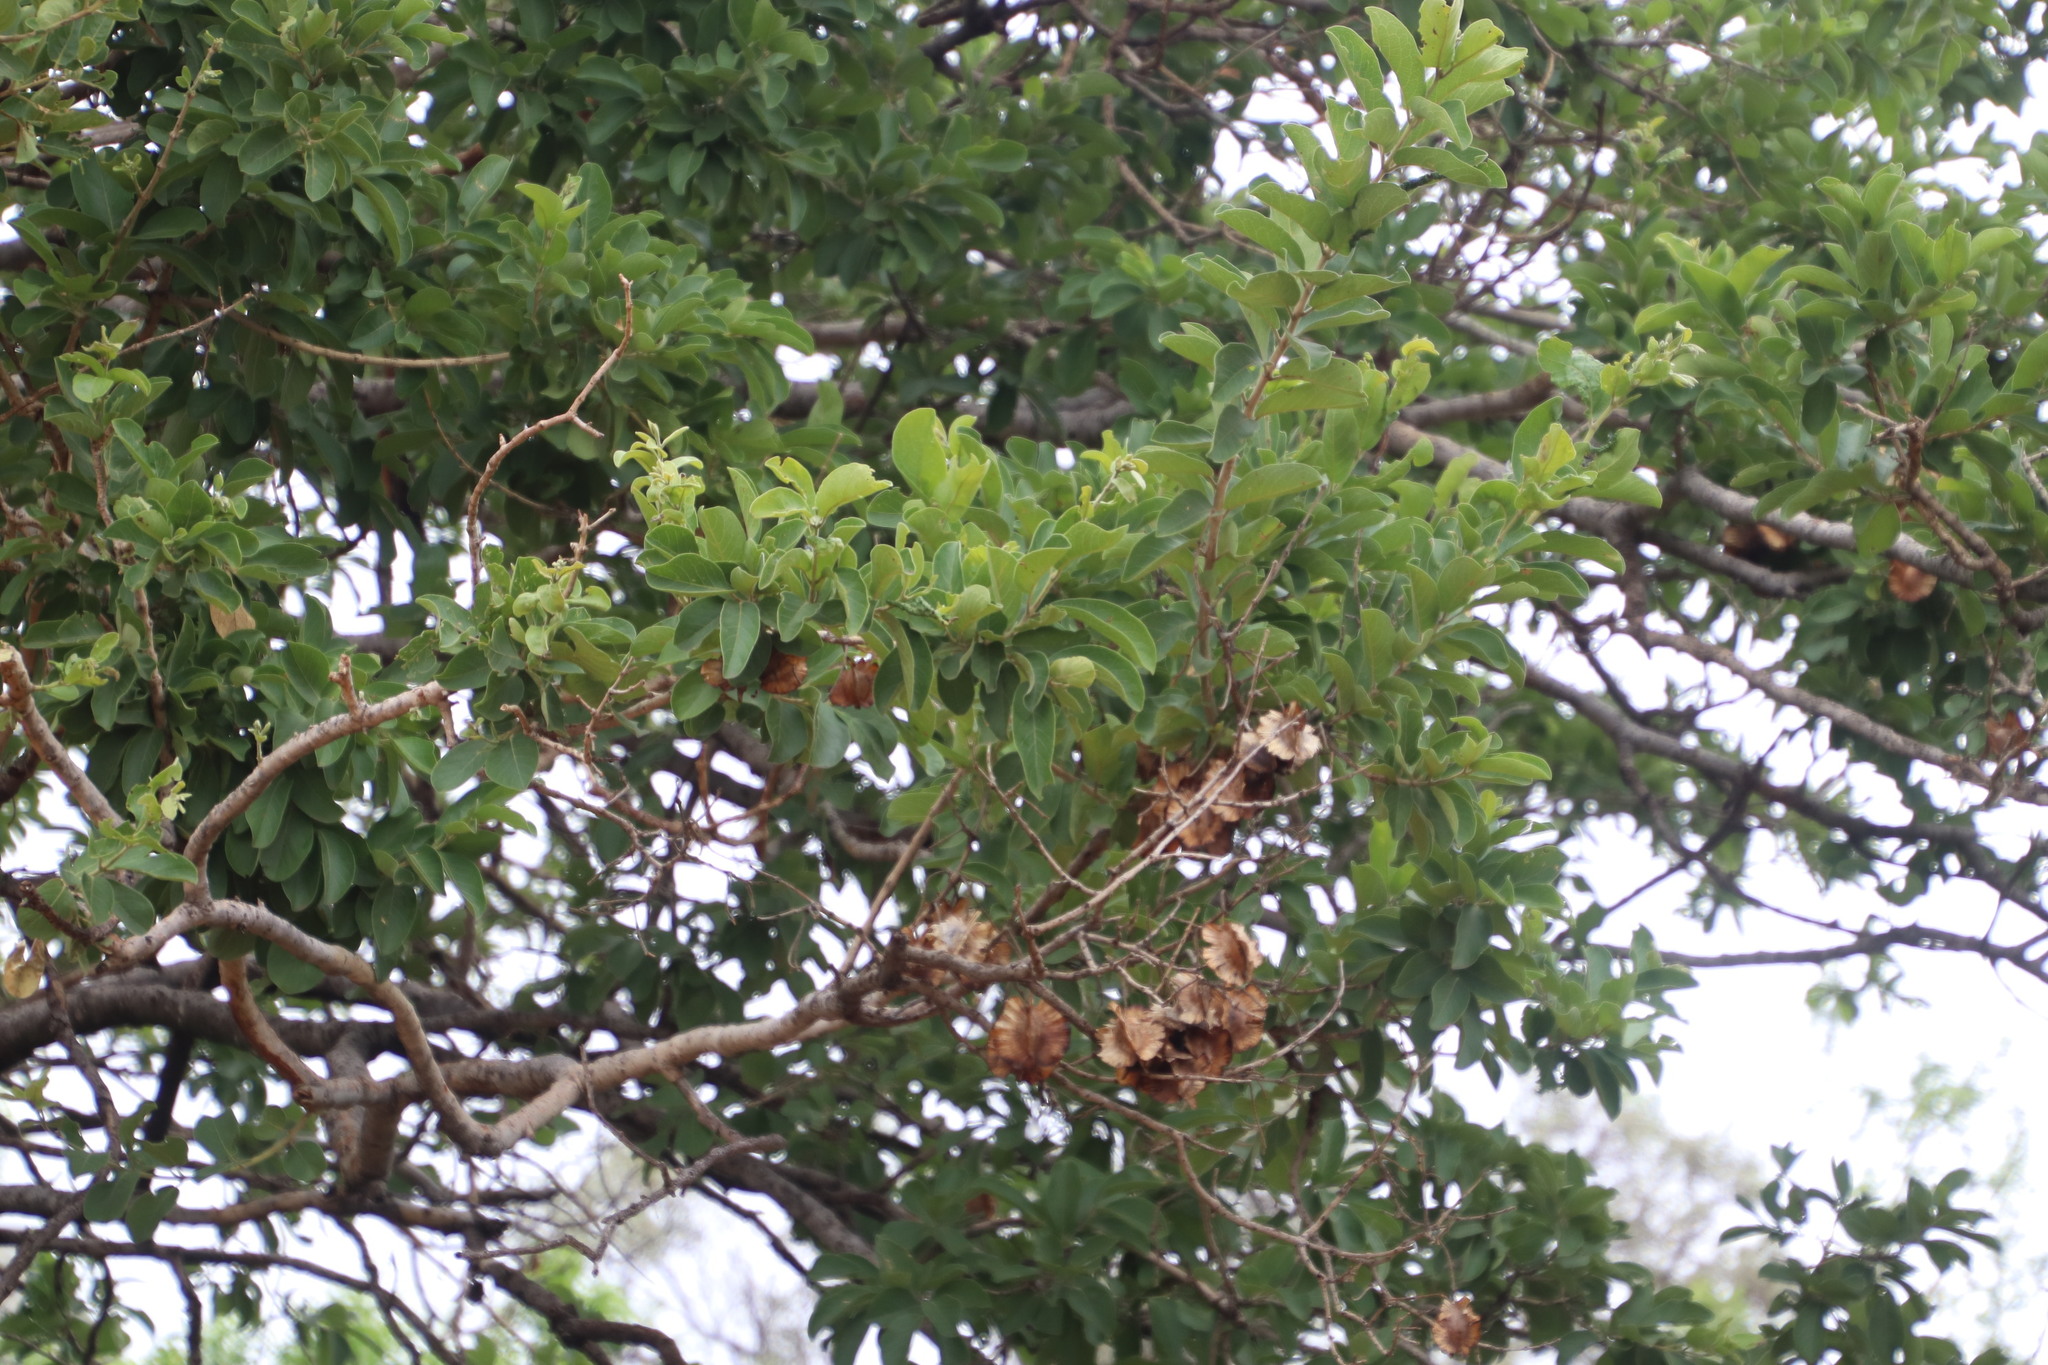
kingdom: Plantae
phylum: Tracheophyta
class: Magnoliopsida
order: Myrtales
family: Combretaceae
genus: Combretum
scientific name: Combretum zeyheri
